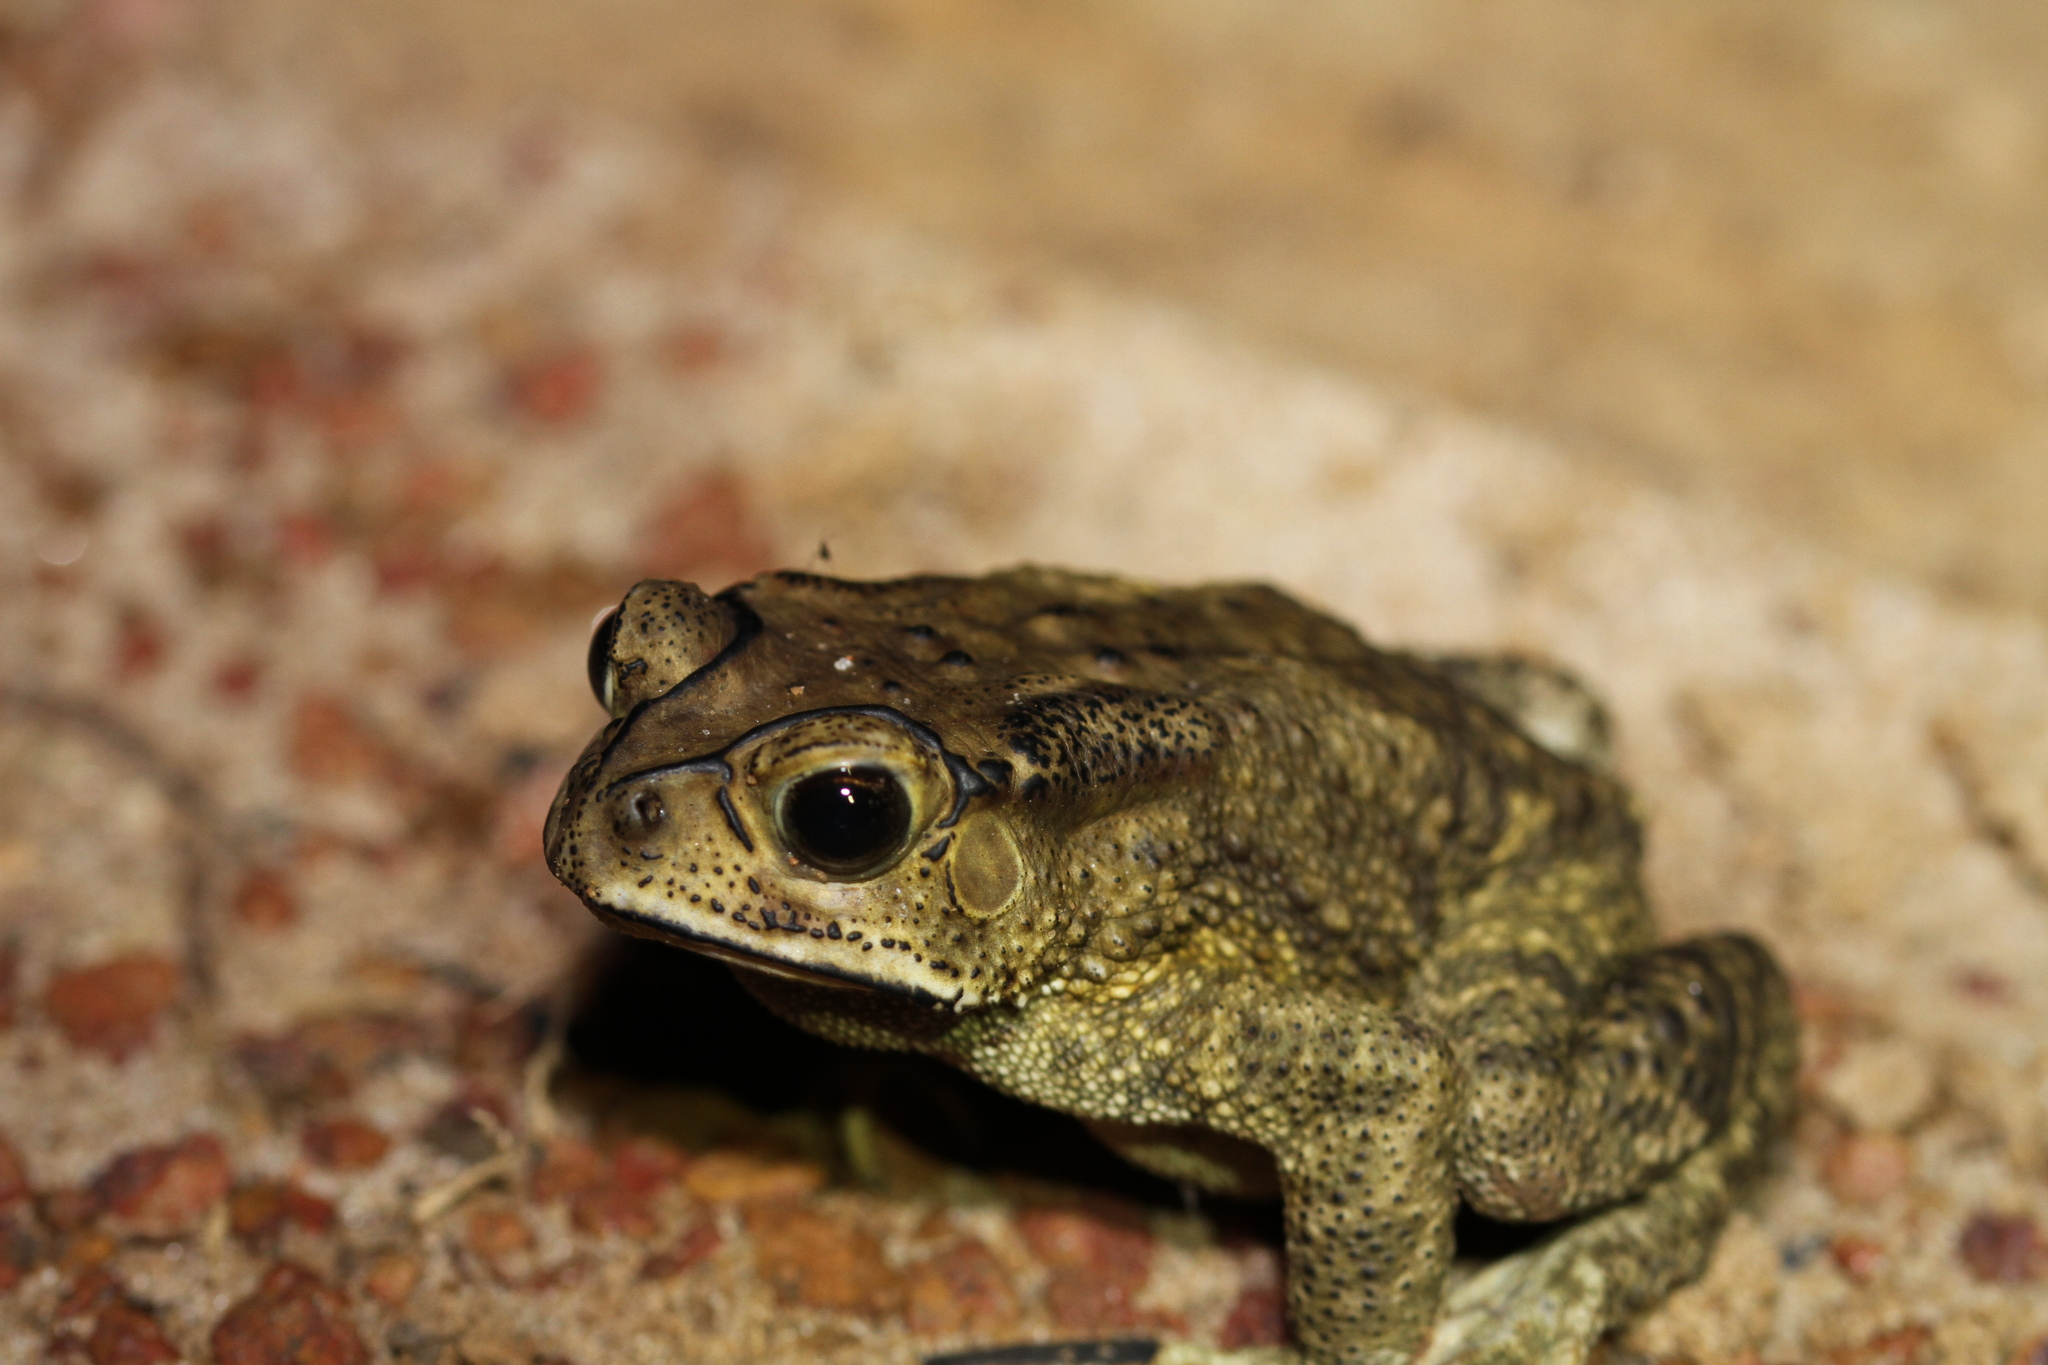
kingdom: Animalia
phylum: Chordata
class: Amphibia
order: Anura
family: Bufonidae
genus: Duttaphrynus
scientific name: Duttaphrynus melanostictus
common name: Common sunda toad
